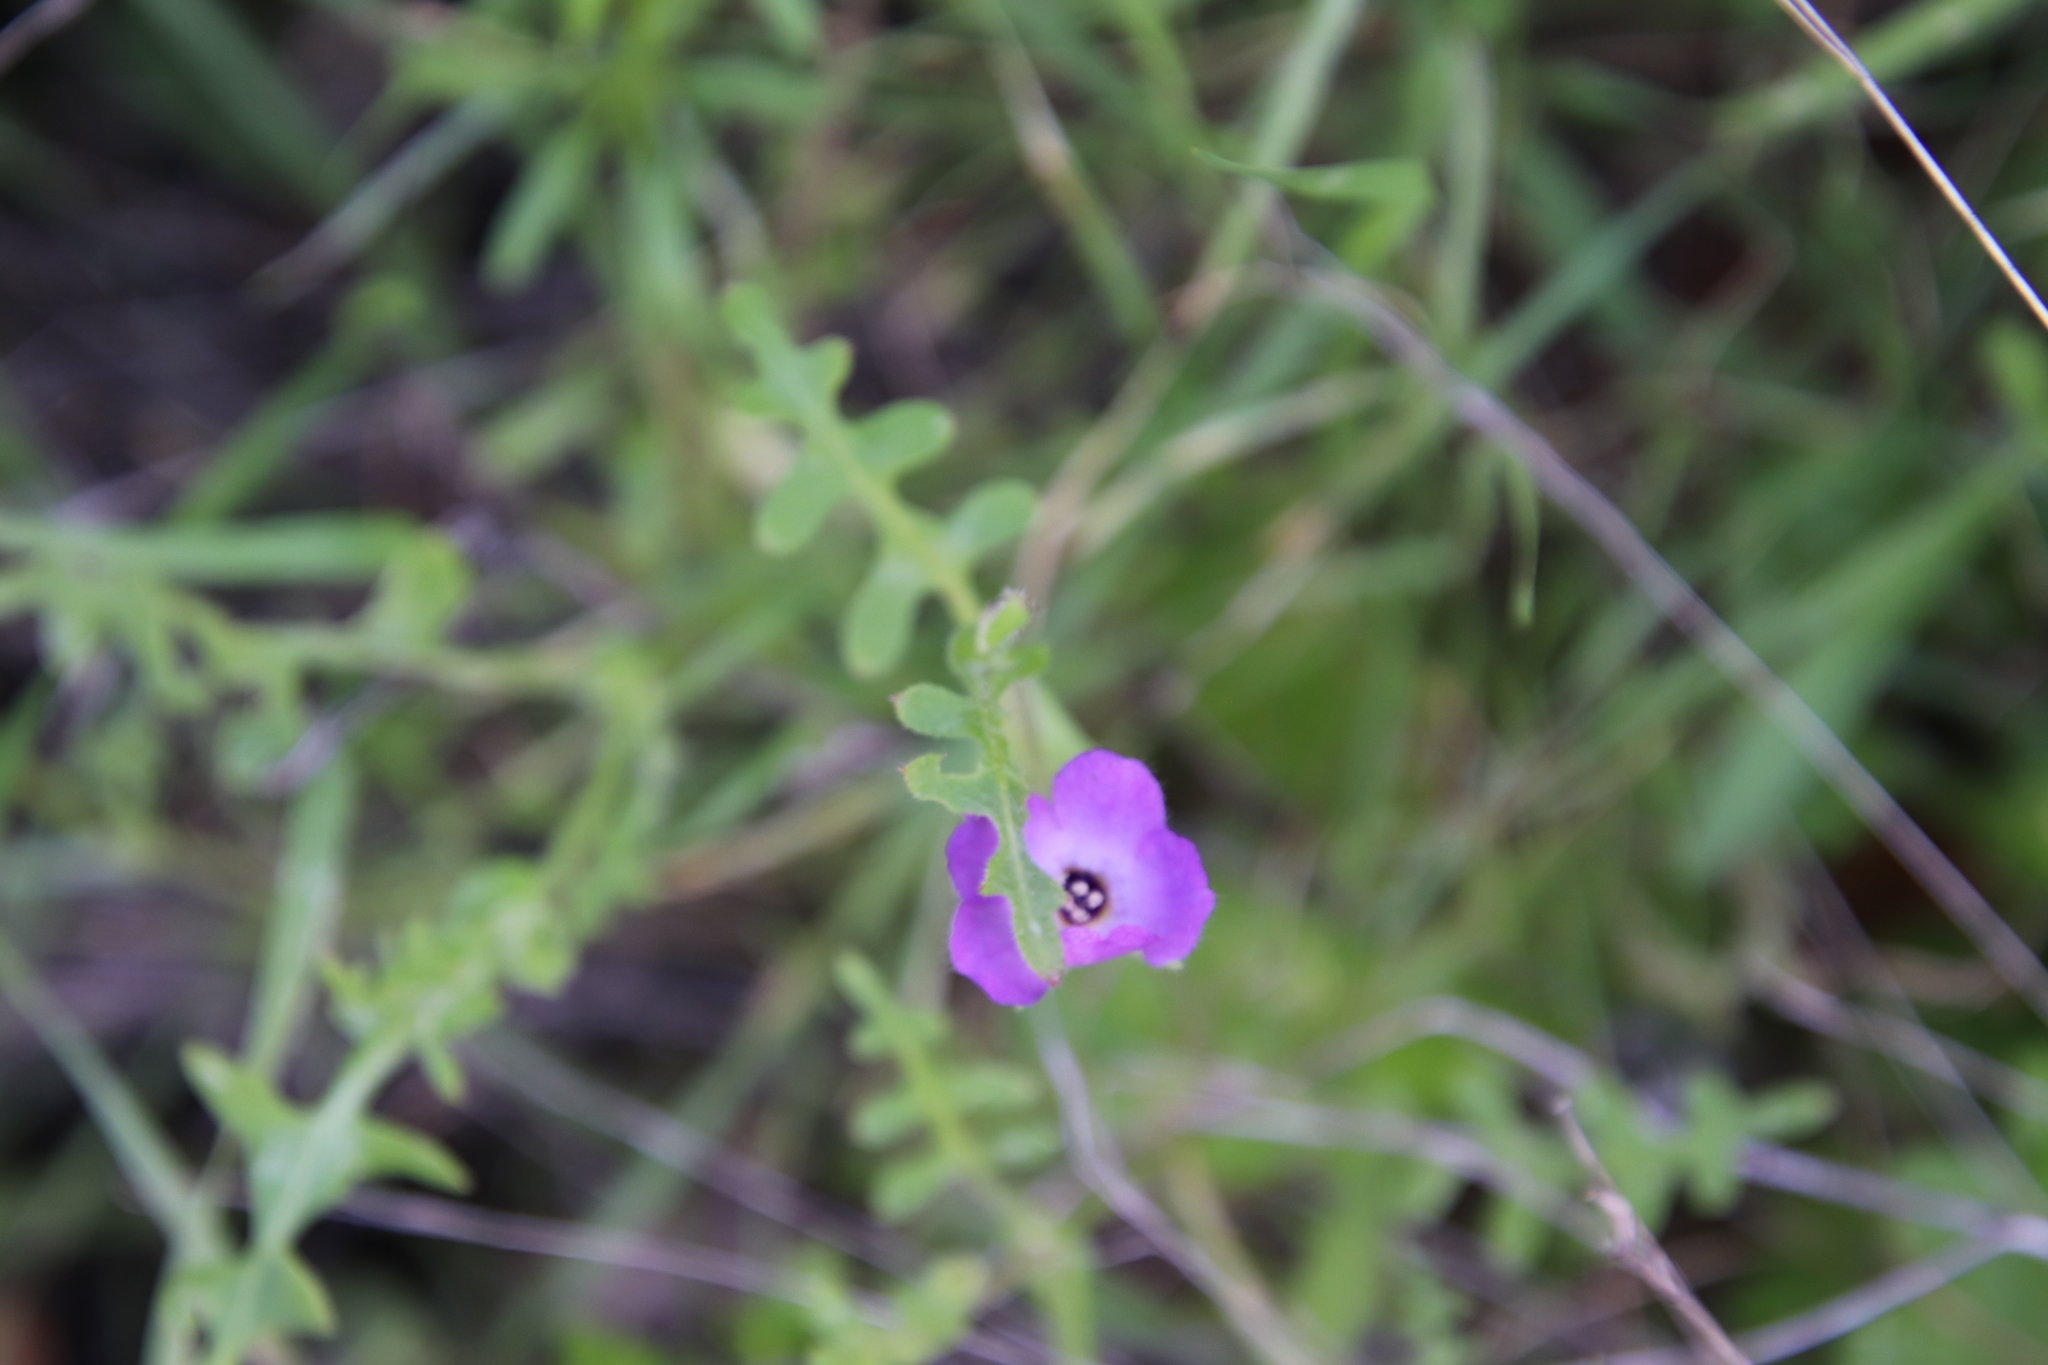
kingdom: Plantae
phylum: Tracheophyta
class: Magnoliopsida
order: Boraginales
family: Hydrophyllaceae
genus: Pholistoma
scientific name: Pholistoma auritum
